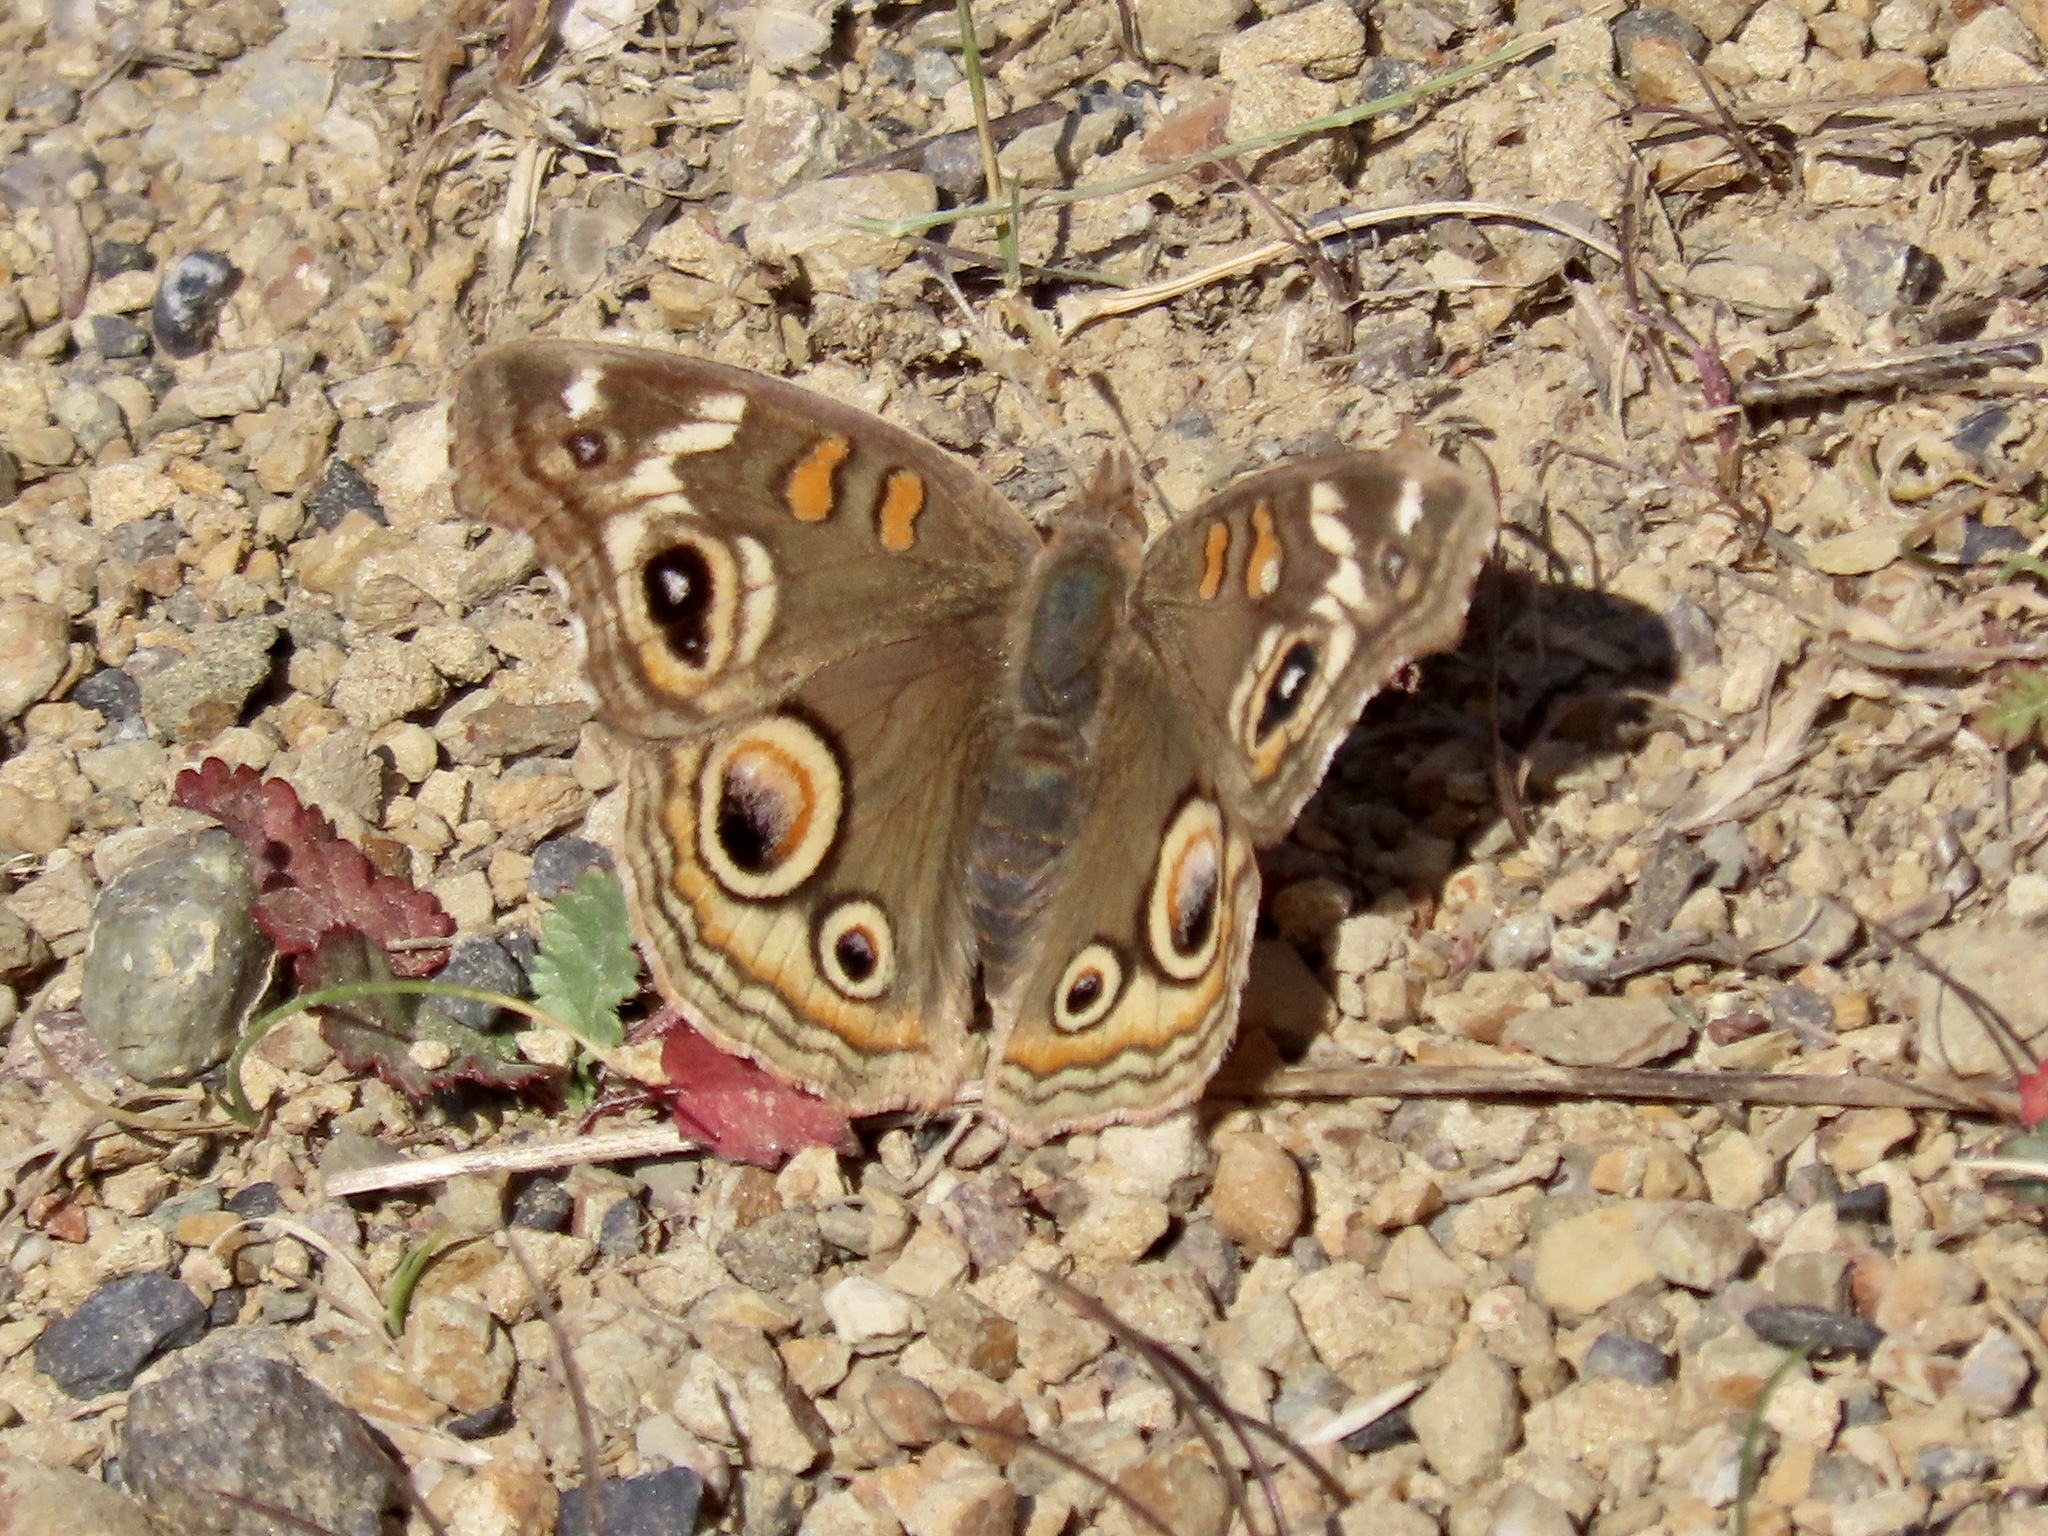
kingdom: Animalia
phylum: Arthropoda
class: Insecta
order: Lepidoptera
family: Nymphalidae
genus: Junonia
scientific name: Junonia grisea
